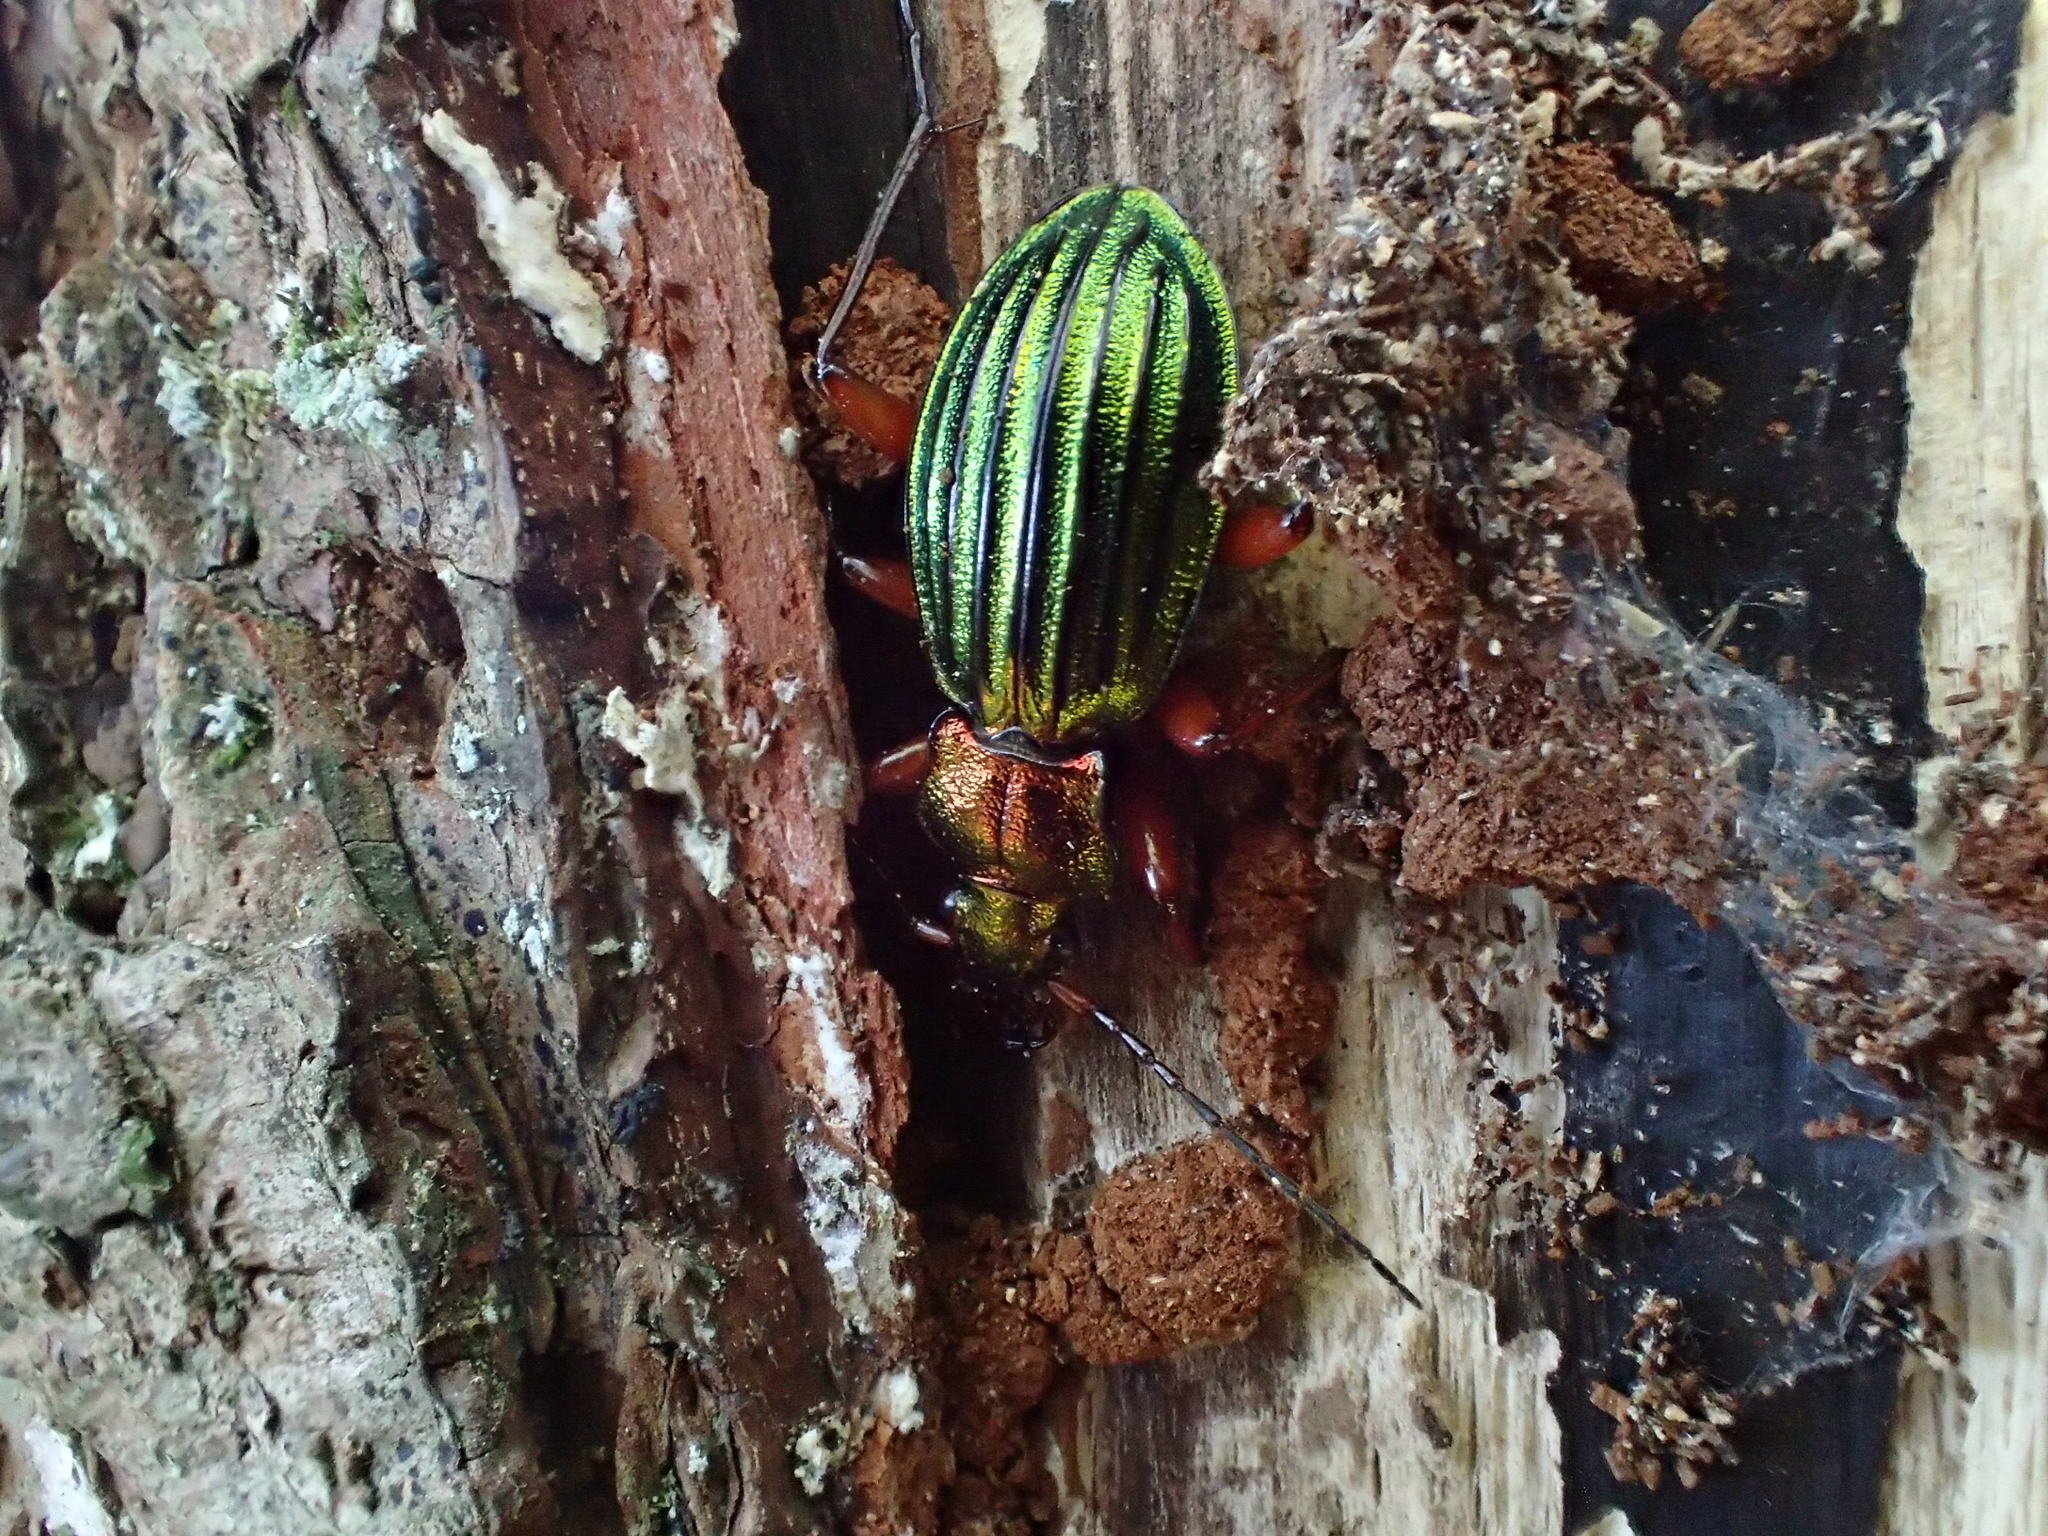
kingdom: Animalia
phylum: Arthropoda
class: Insecta
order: Coleoptera
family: Carabidae
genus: Carabus
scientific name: Carabus auronitens
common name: Carabus auronitens
